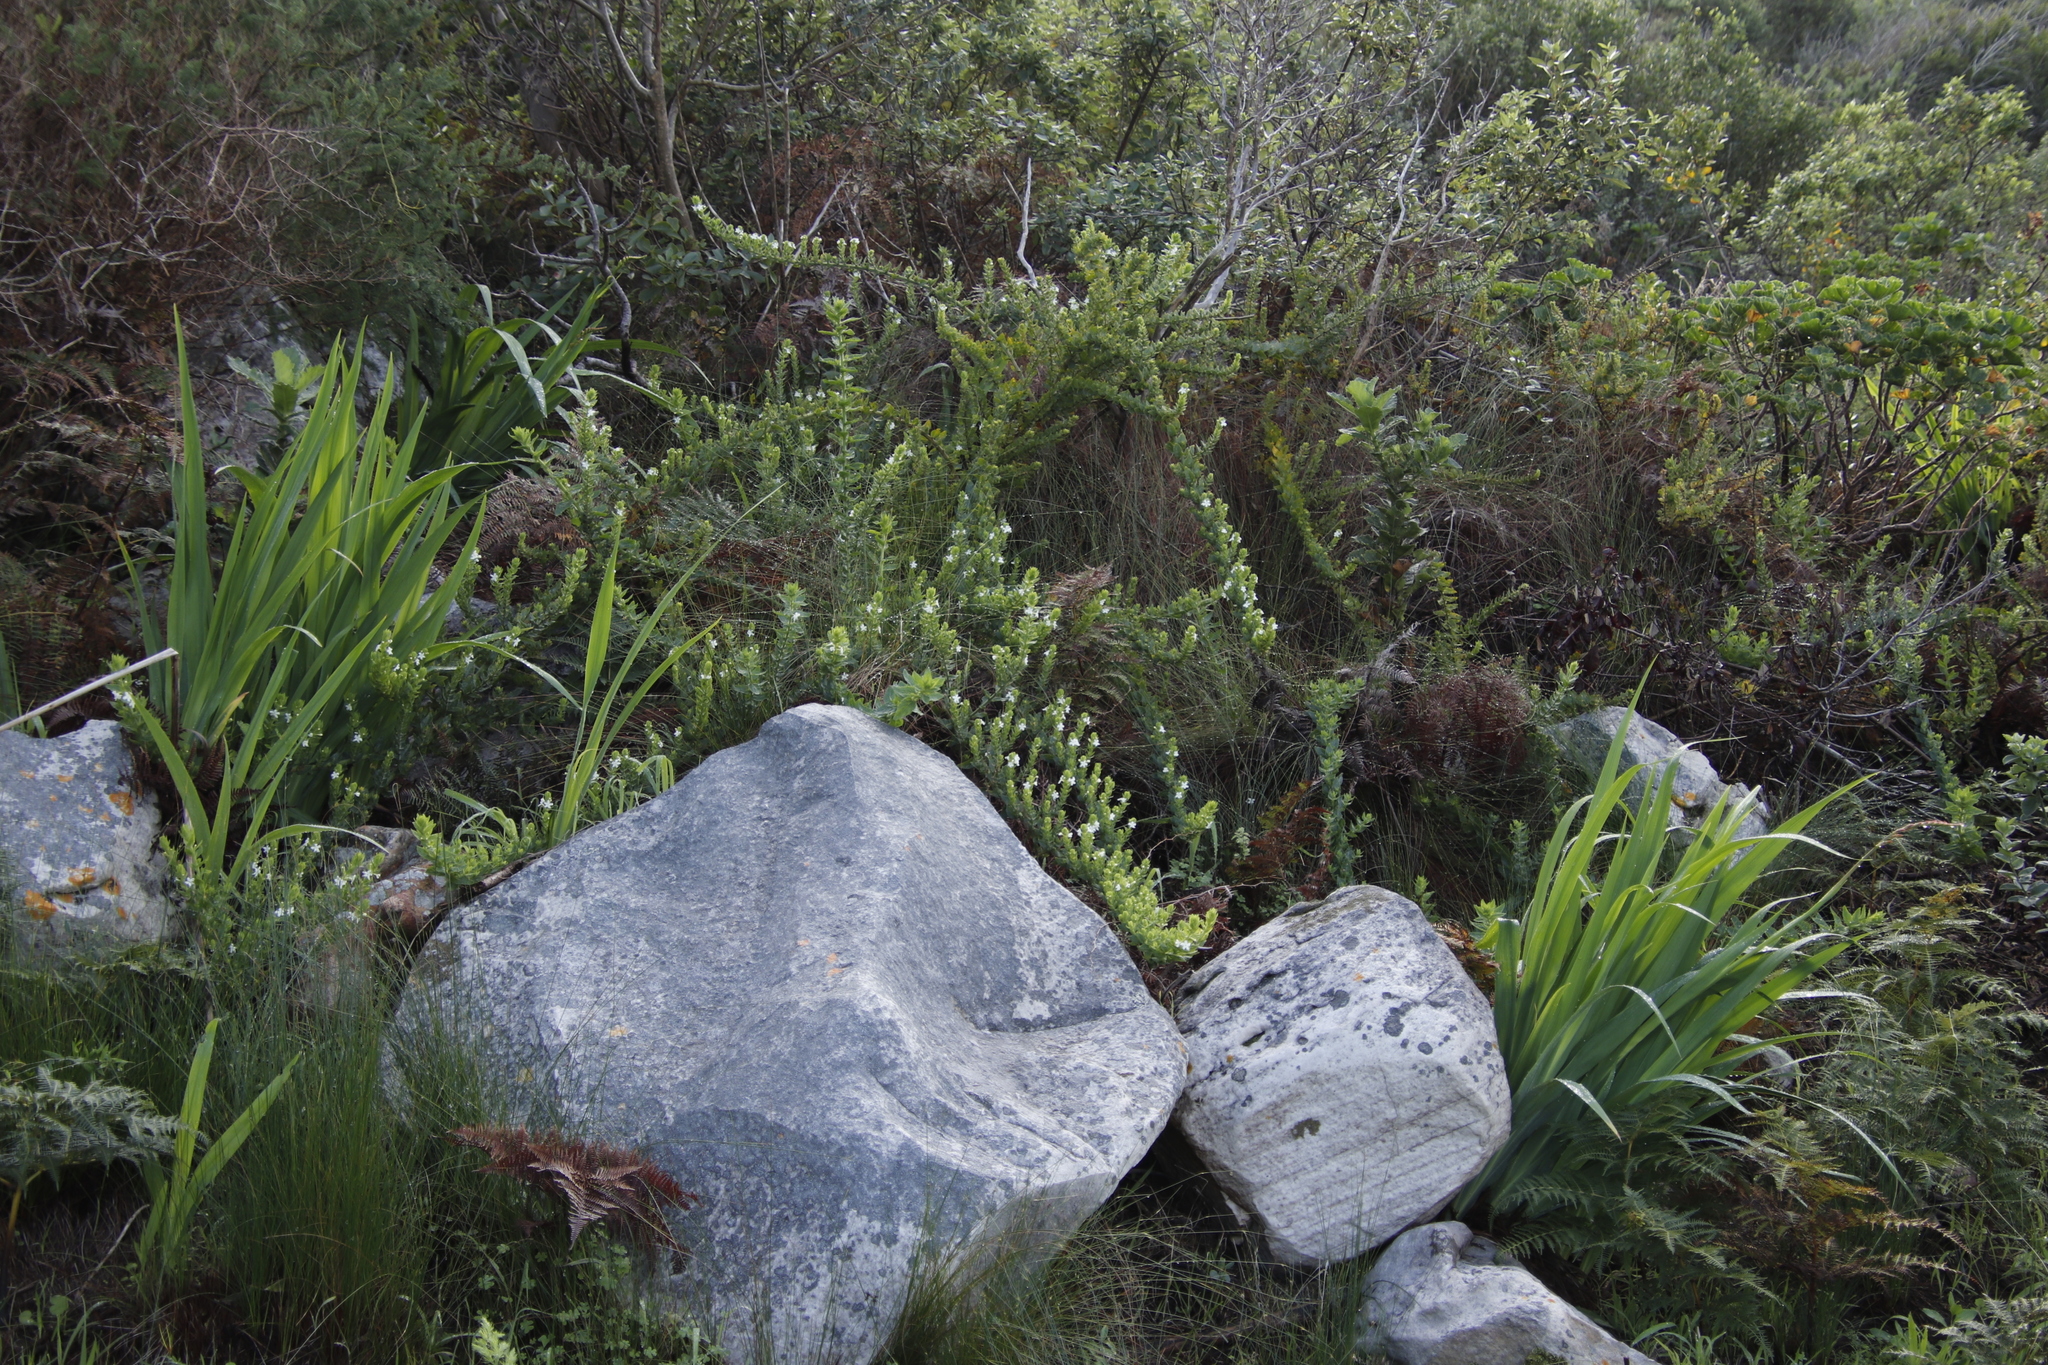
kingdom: Plantae
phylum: Tracheophyta
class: Magnoliopsida
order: Lamiales
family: Scrophulariaceae
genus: Oftia
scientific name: Oftia africana
